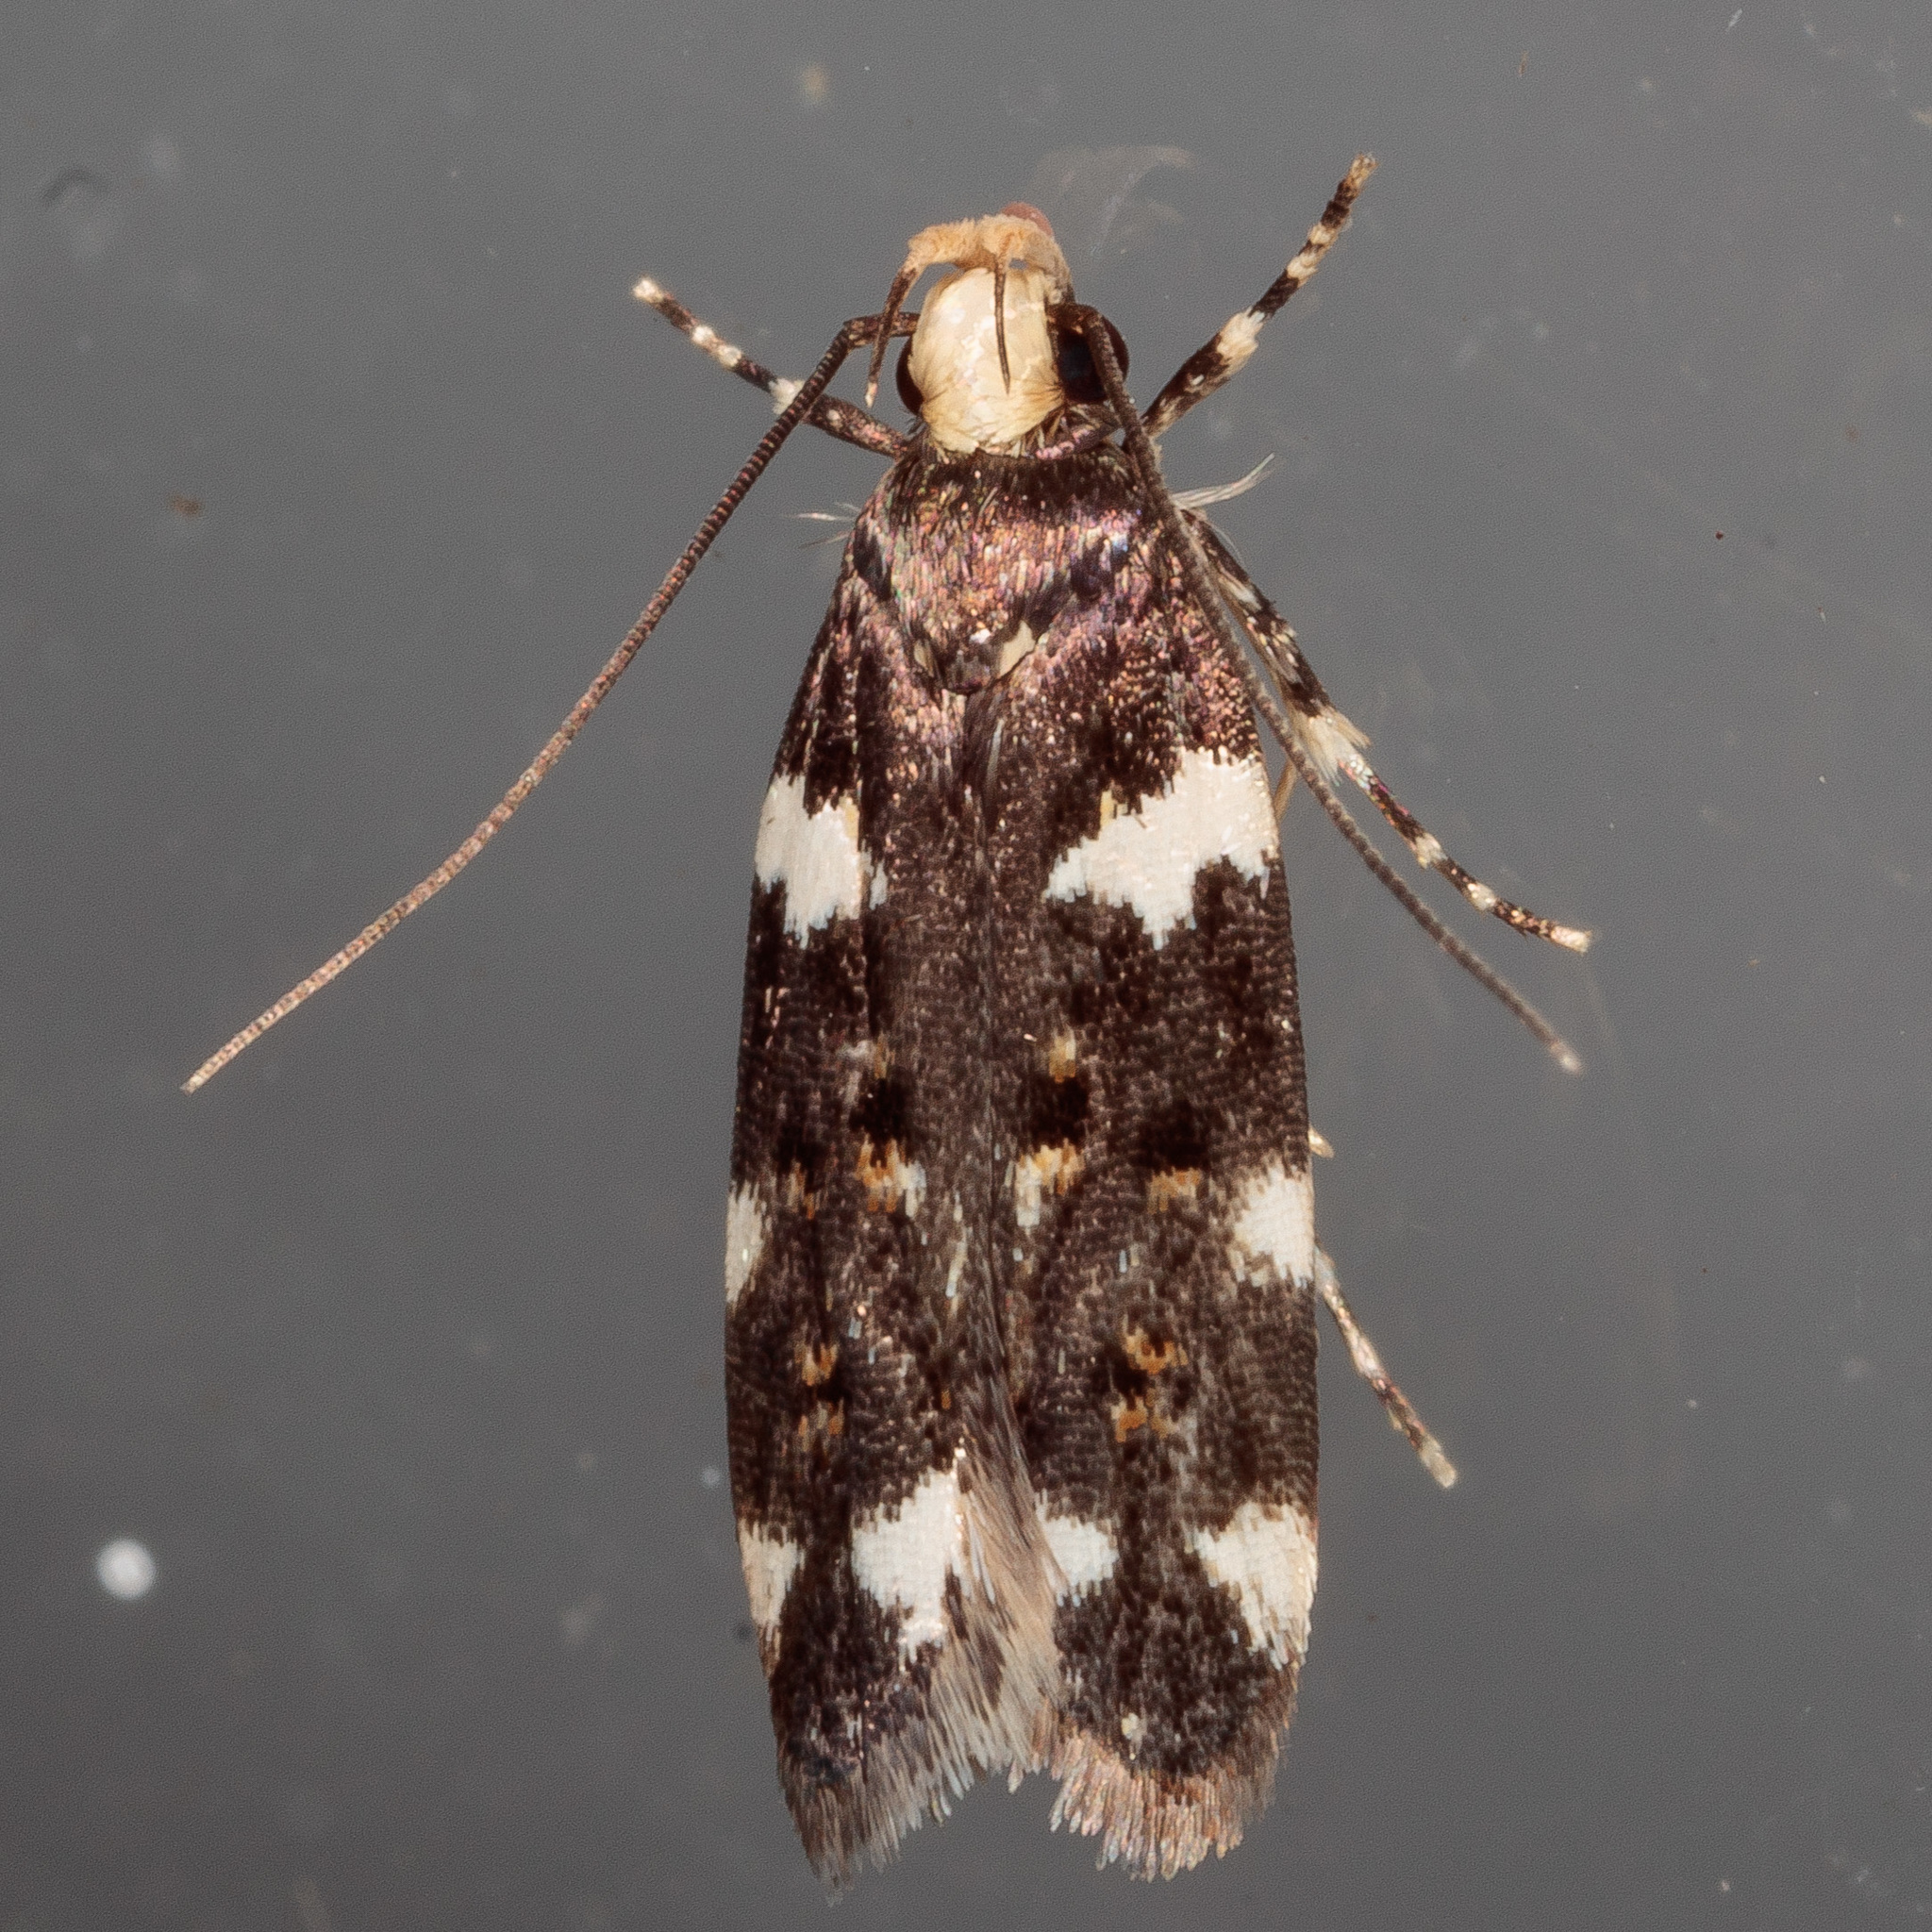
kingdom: Animalia
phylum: Arthropoda
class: Insecta
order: Lepidoptera
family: Gelechiidae
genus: Fascista
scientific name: Fascista cercerisella
